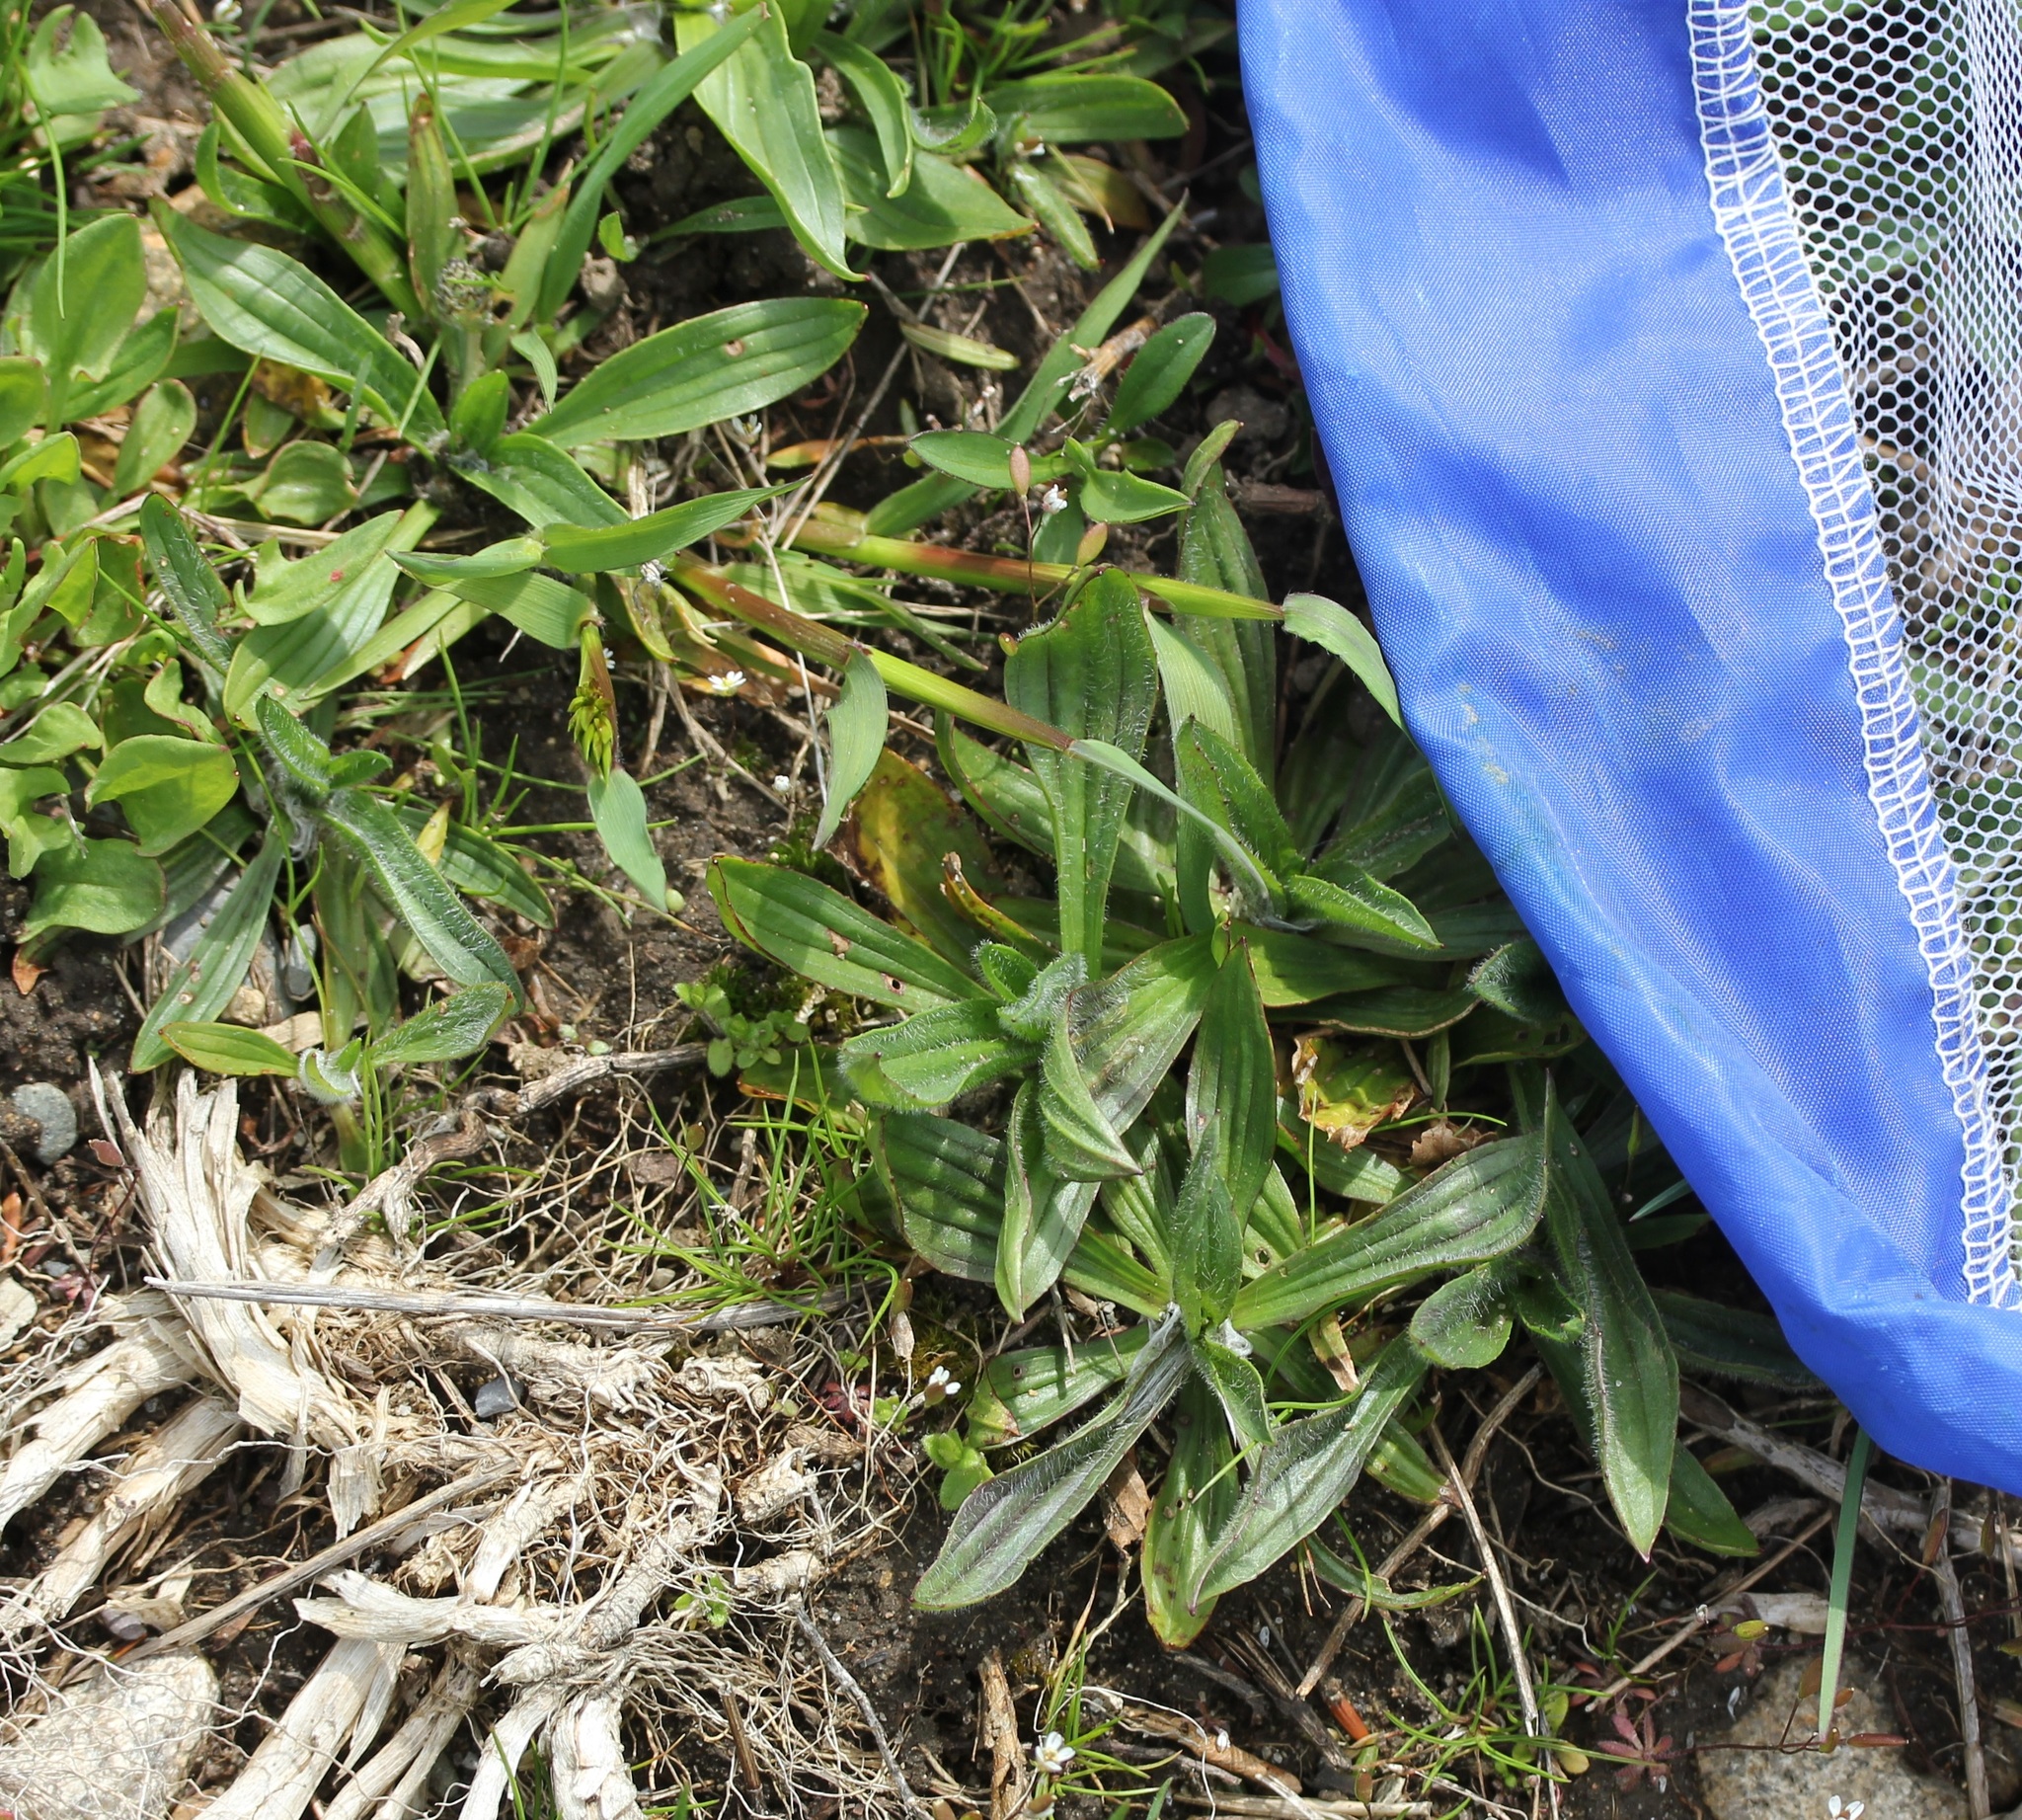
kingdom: Plantae
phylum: Tracheophyta
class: Magnoliopsida
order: Lamiales
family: Plantaginaceae
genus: Plantago
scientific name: Plantago lanceolata
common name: Ribwort plantain
